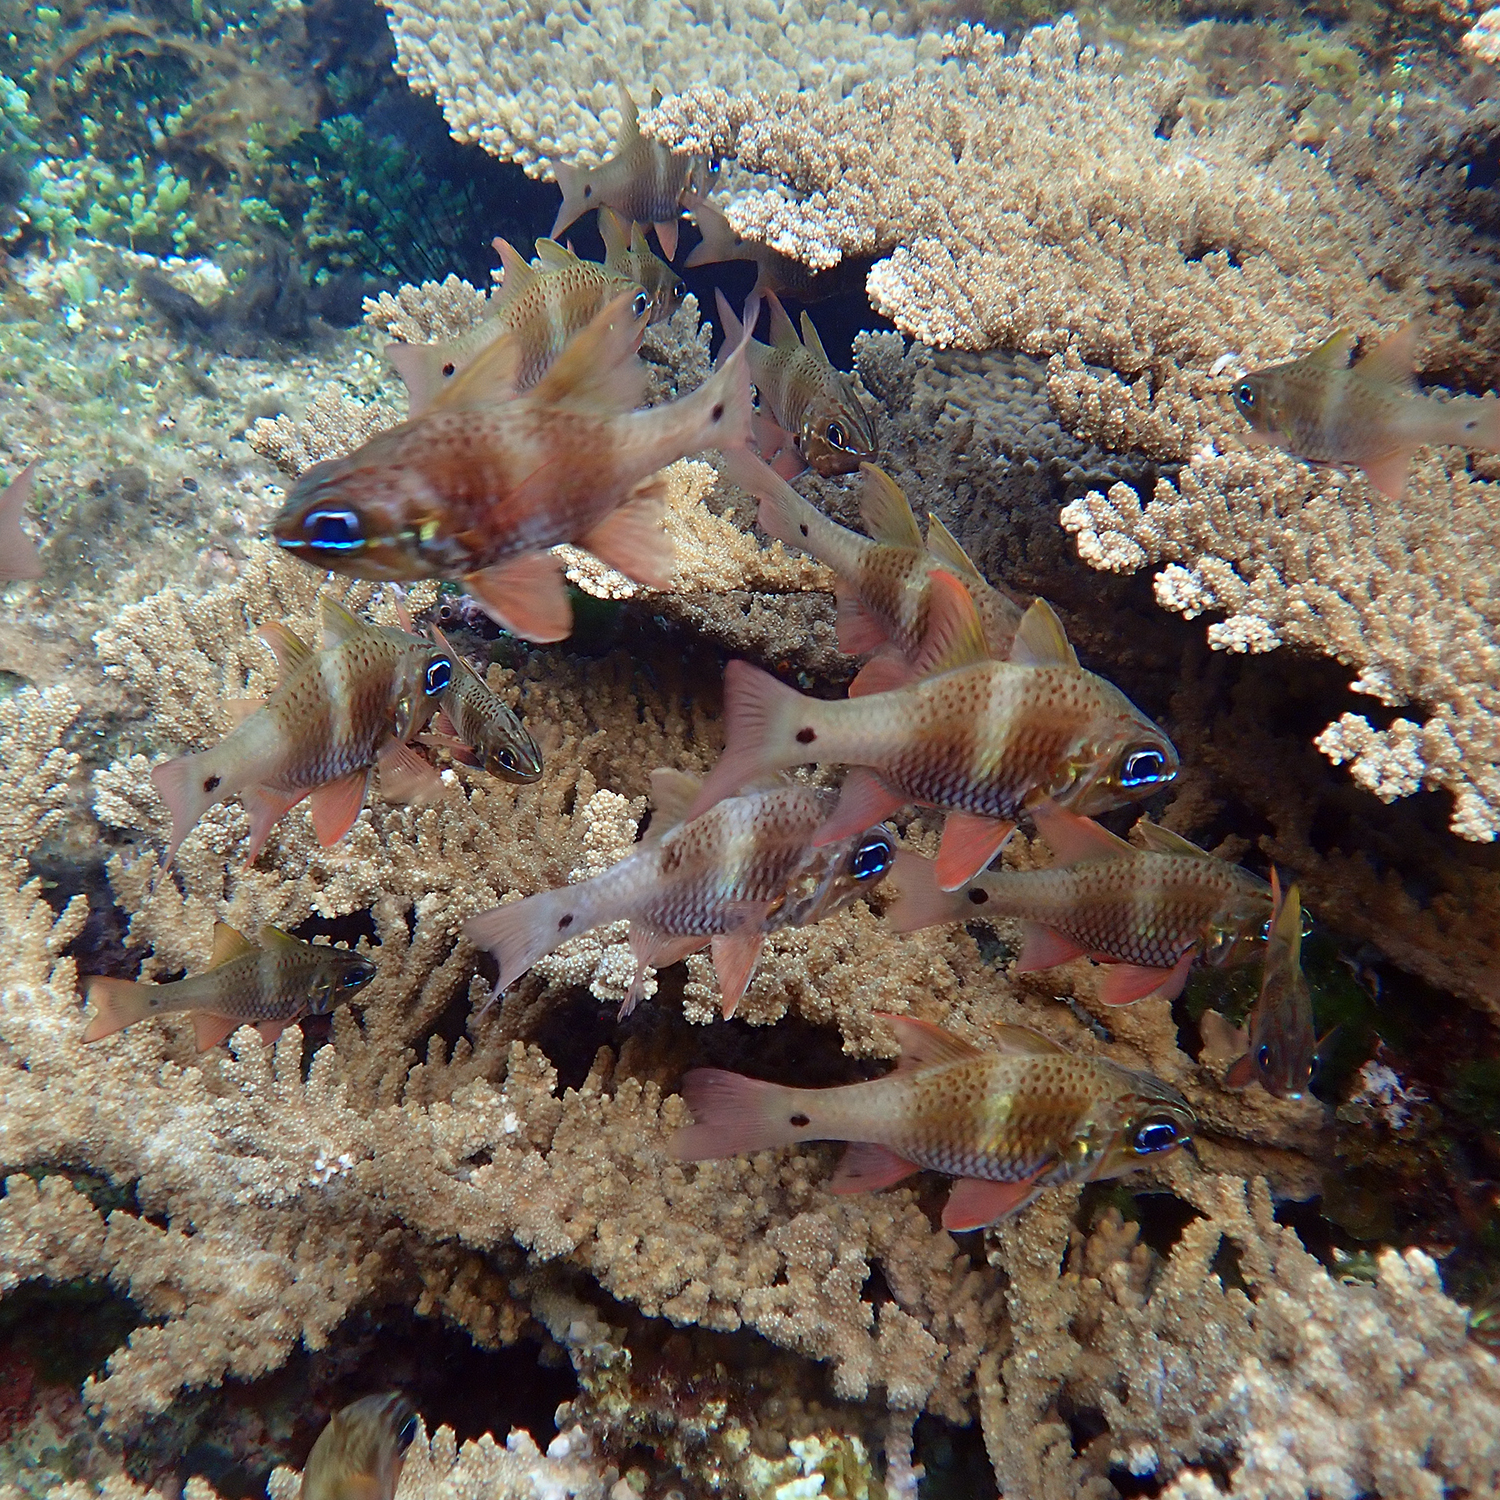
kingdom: Animalia
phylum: Chordata
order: Perciformes
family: Apogonidae
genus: Ostorhinchus
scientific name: Ostorhinchus norfolcensis
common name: Norfolk cardinalfish
